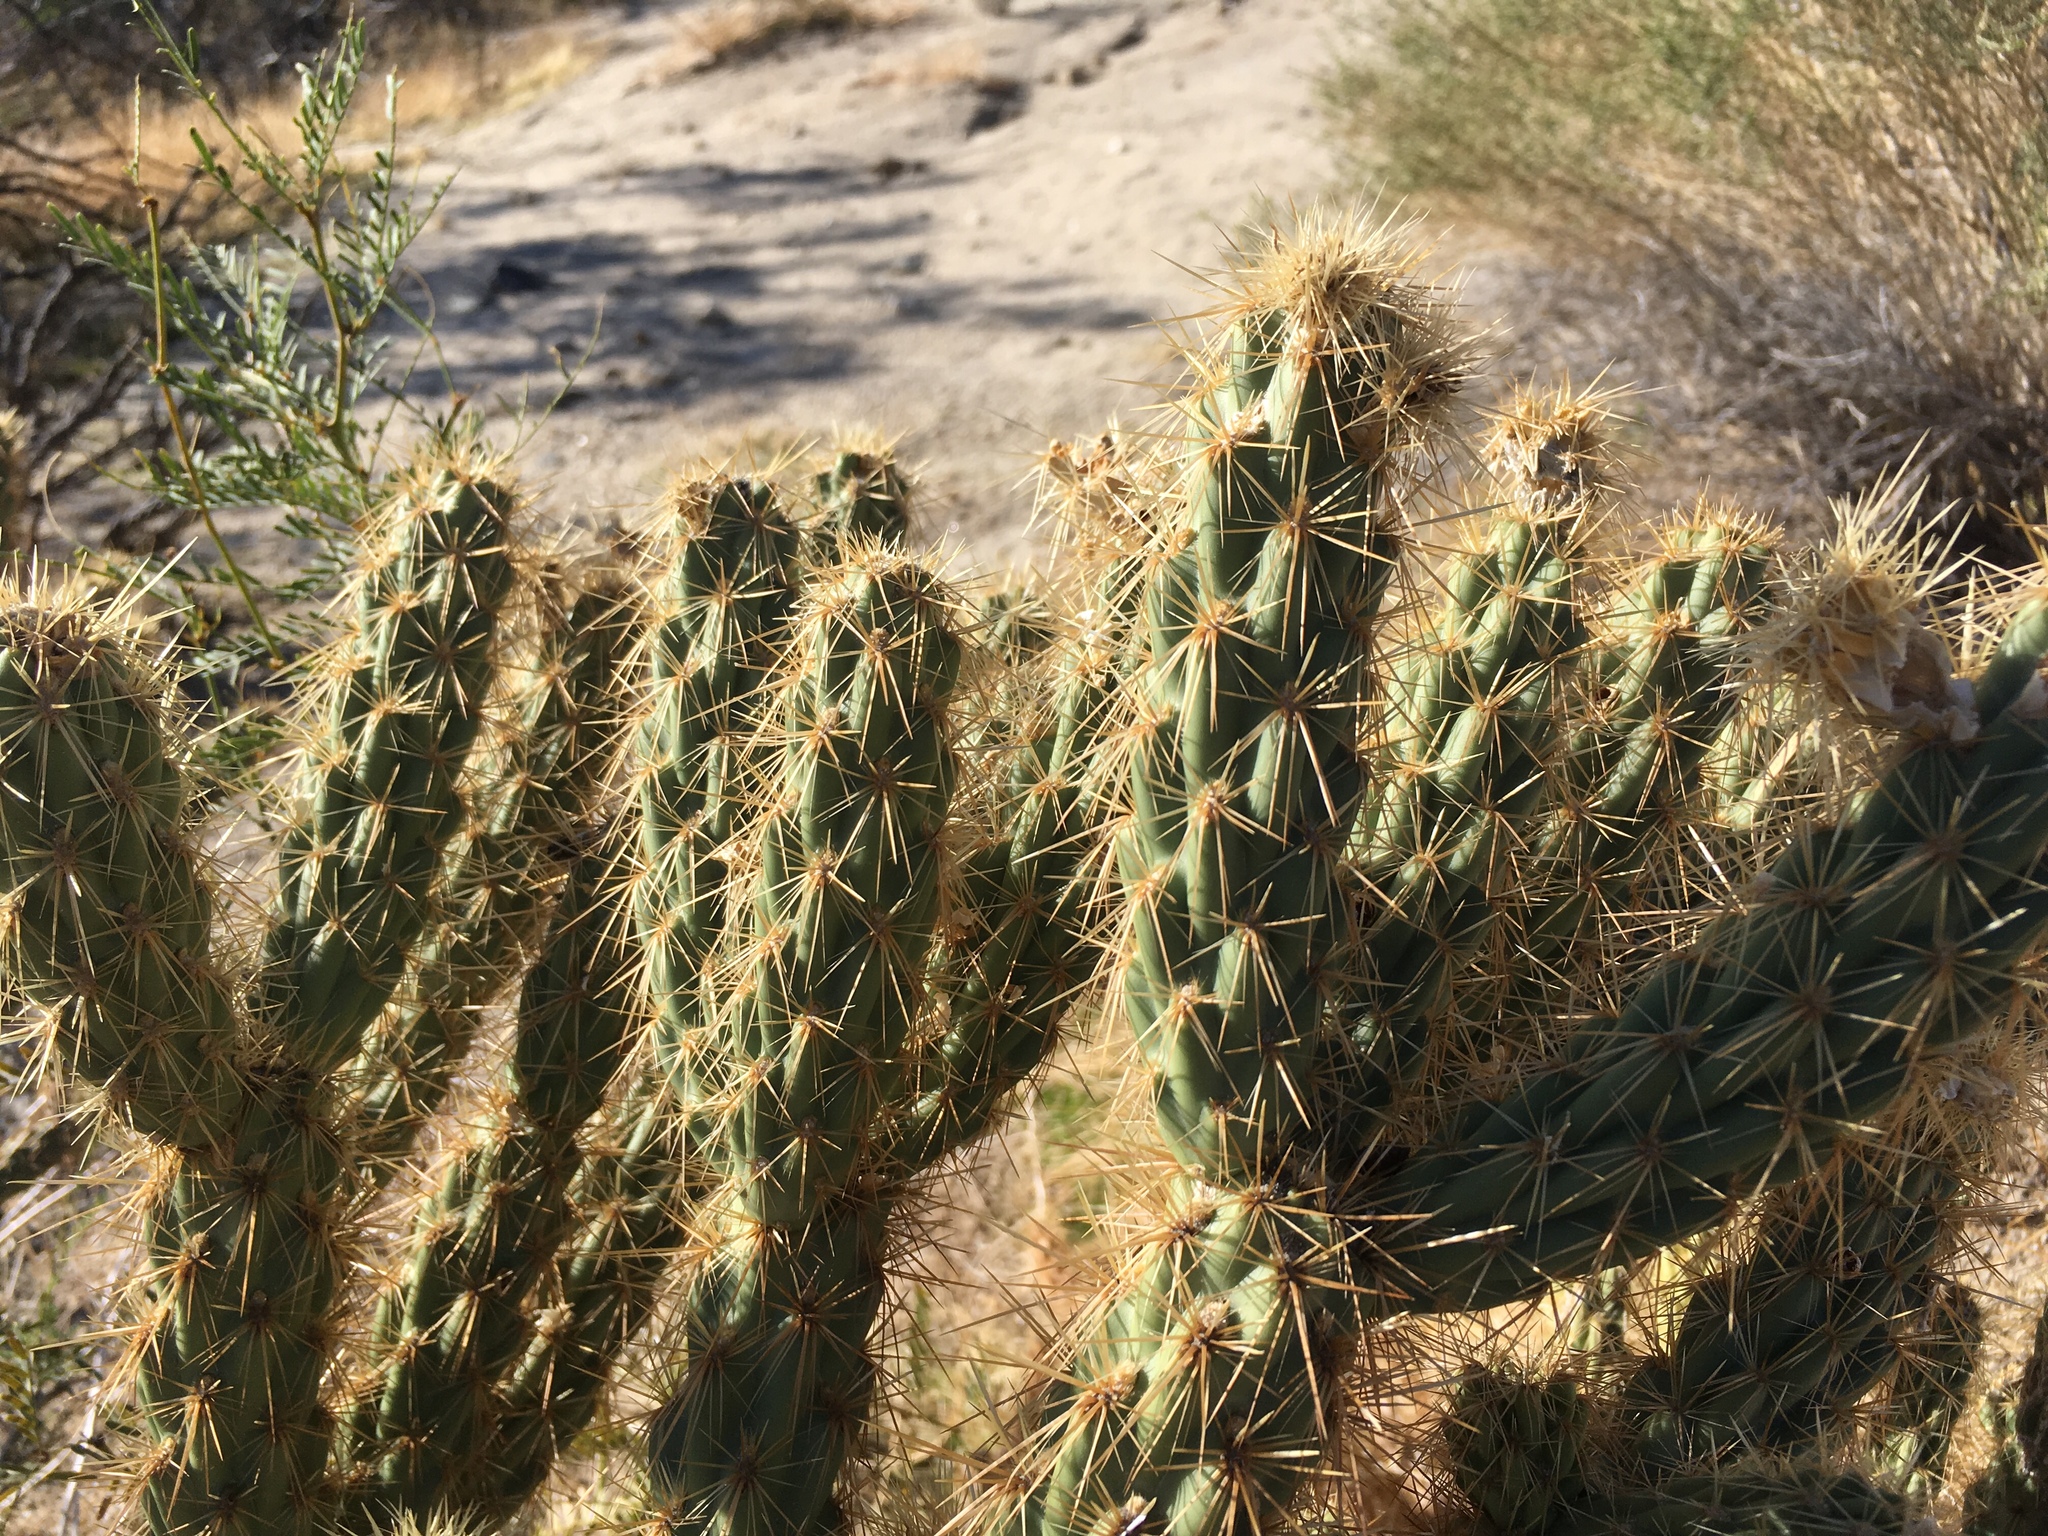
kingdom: Plantae
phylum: Tracheophyta
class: Magnoliopsida
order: Caryophyllales
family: Cactaceae
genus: Cylindropuntia
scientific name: Cylindropuntia ganderi
